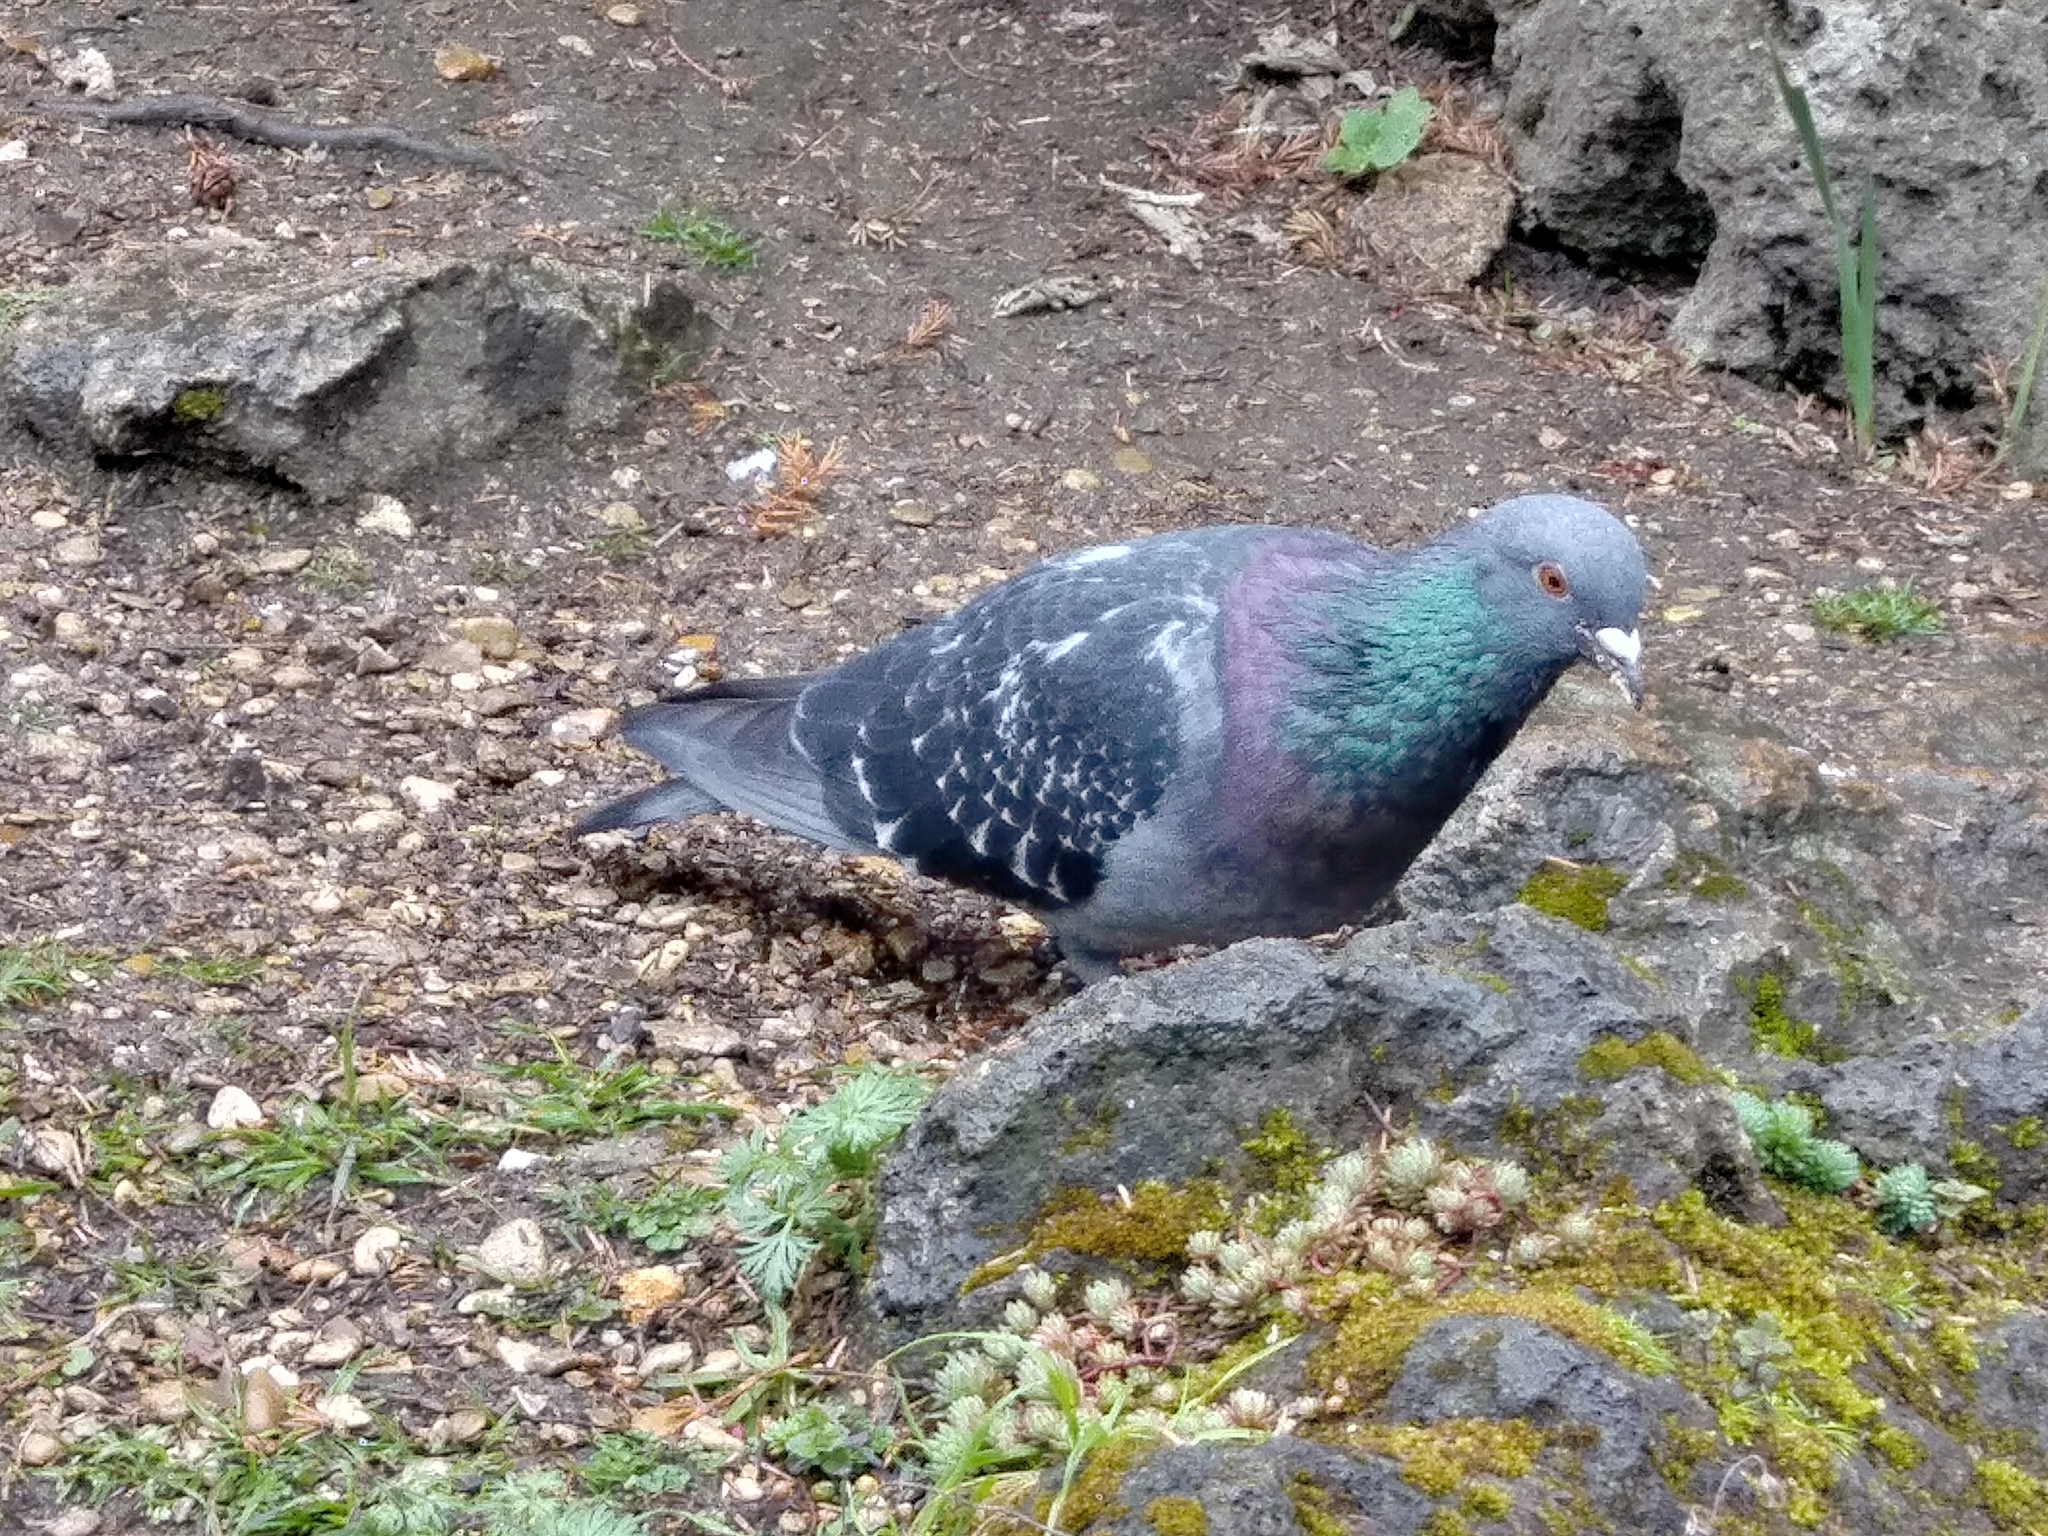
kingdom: Animalia
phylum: Chordata
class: Aves
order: Columbiformes
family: Columbidae
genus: Columba
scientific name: Columba livia
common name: Rock pigeon
